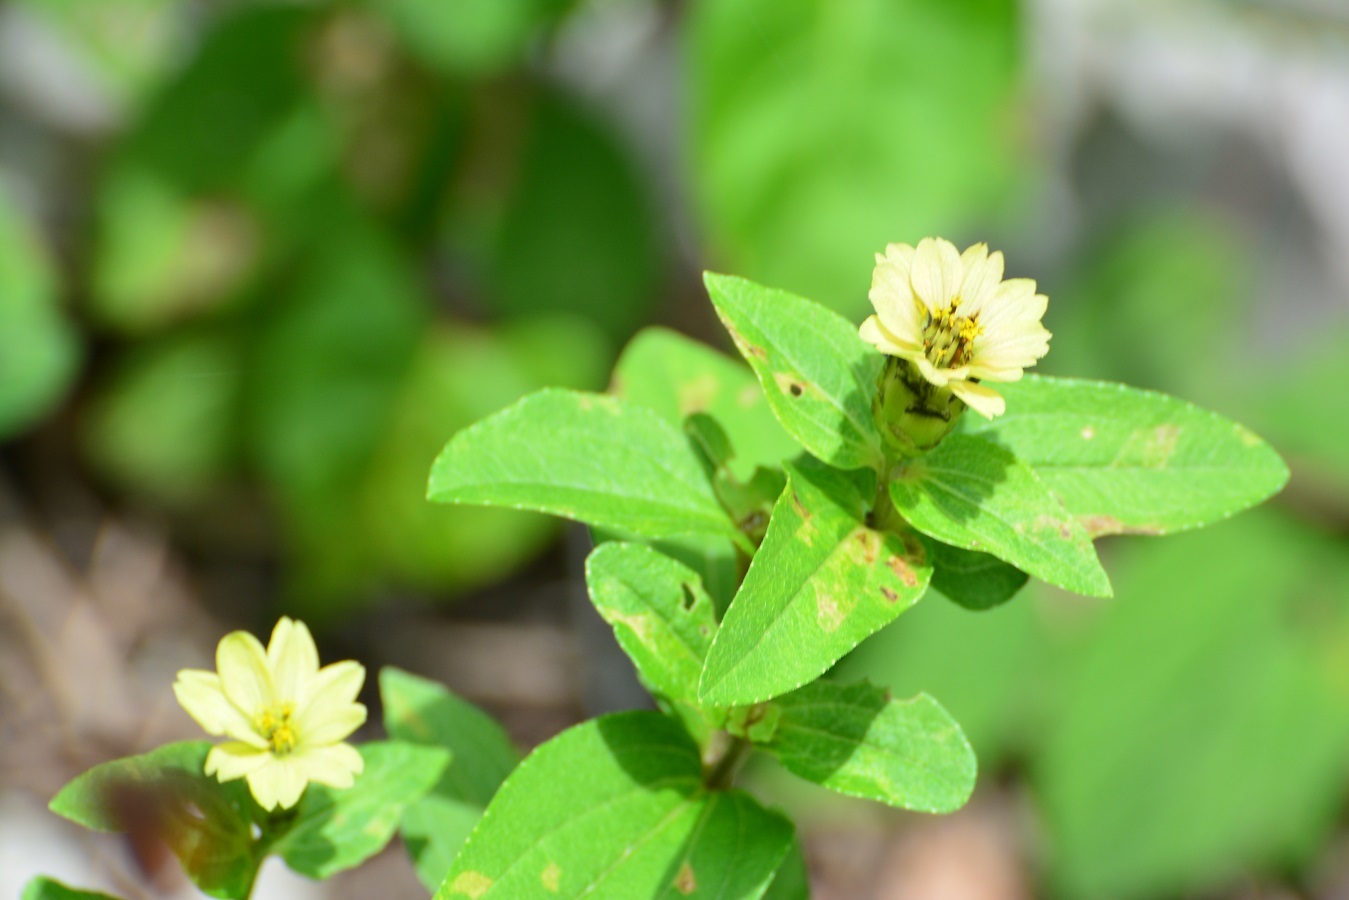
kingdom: Plantae
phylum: Tracheophyta
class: Magnoliopsida
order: Asterales
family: Asteraceae
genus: Zinnia
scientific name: Zinnia peruviana
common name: Peruvian zinnia
